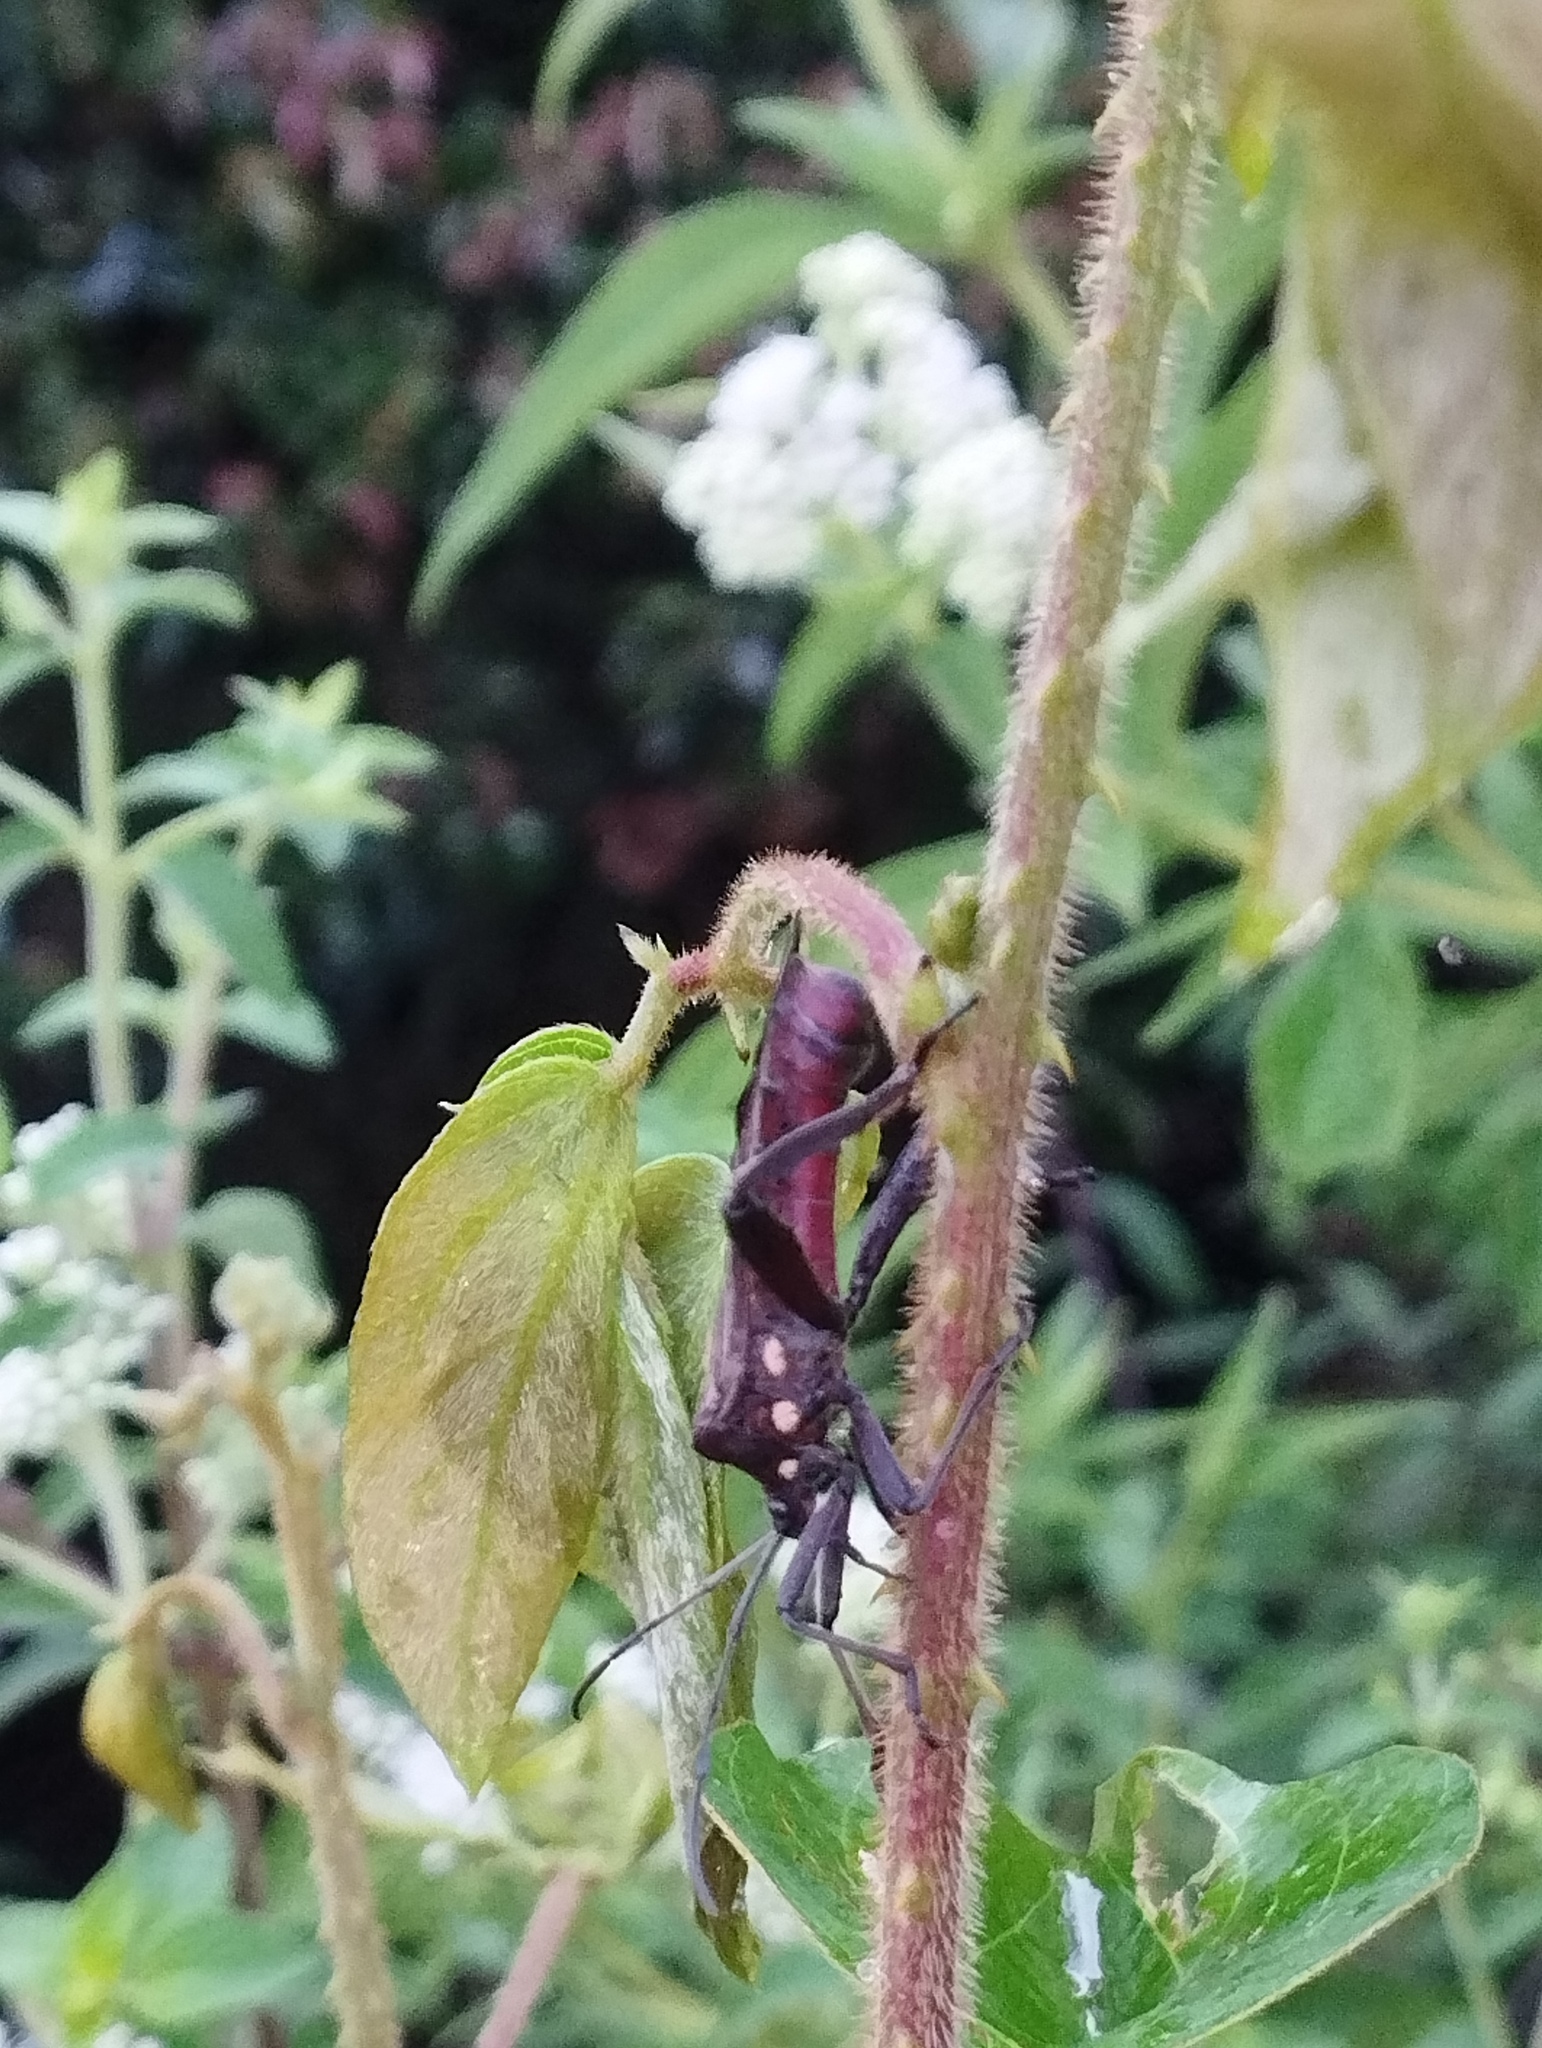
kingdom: Animalia
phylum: Arthropoda
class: Insecta
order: Hemiptera
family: Coreidae
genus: Thasus
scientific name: Thasus heteropus
